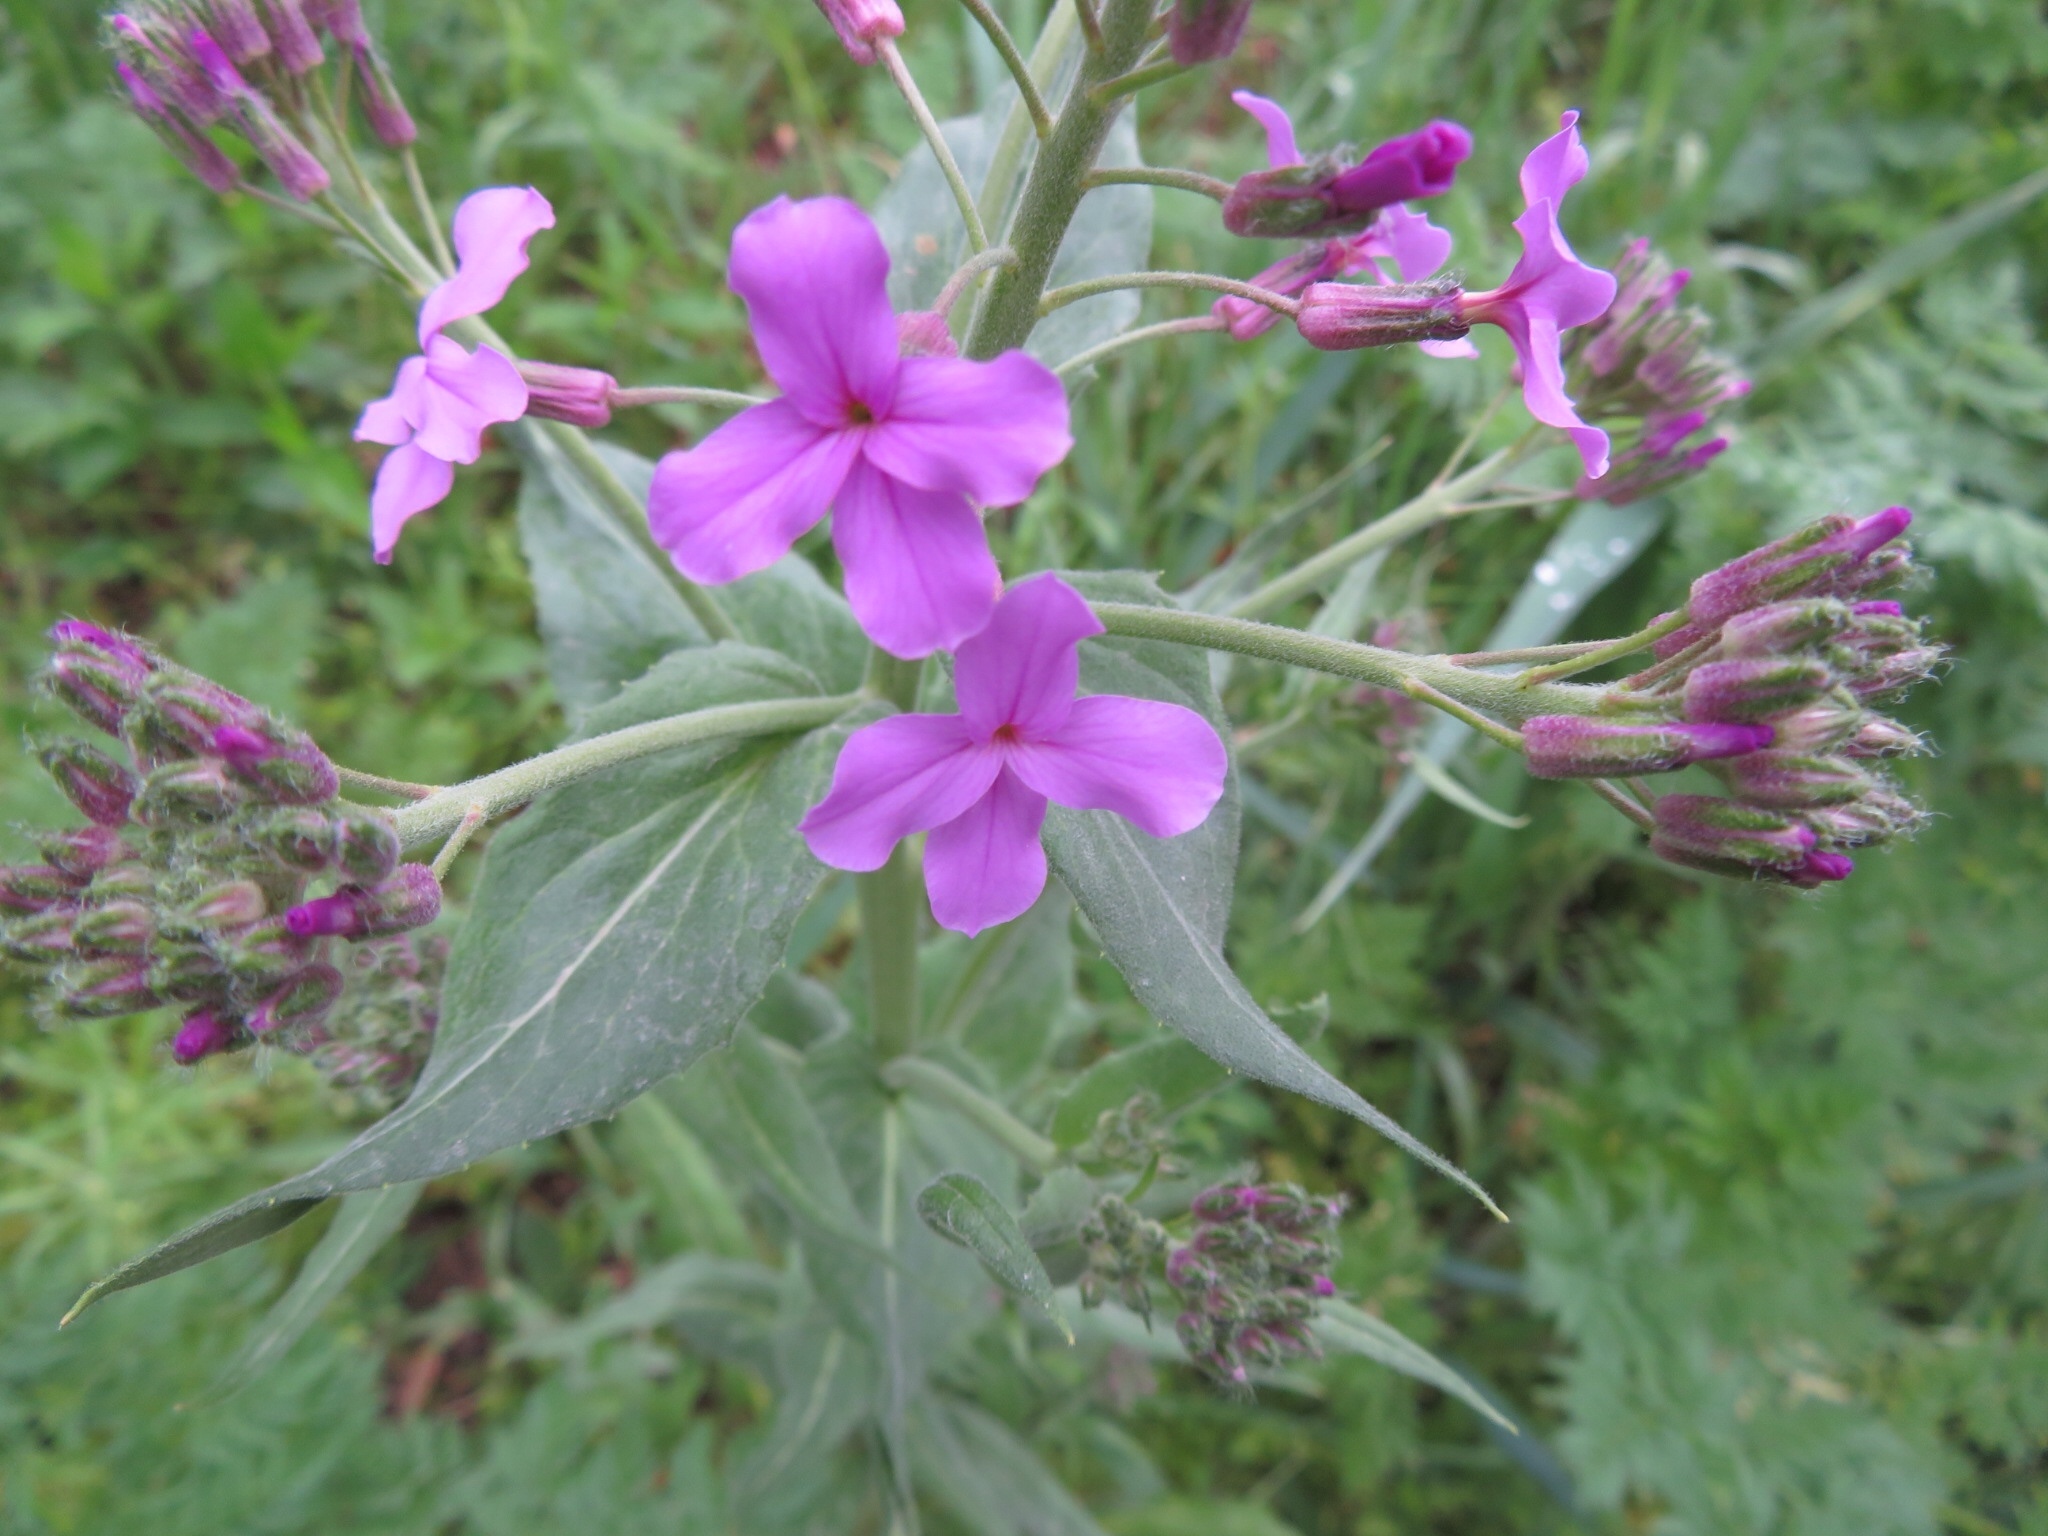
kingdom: Plantae
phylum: Tracheophyta
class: Magnoliopsida
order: Brassicales
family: Brassicaceae
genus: Hesperis
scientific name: Hesperis matronalis
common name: Dame's-violet
